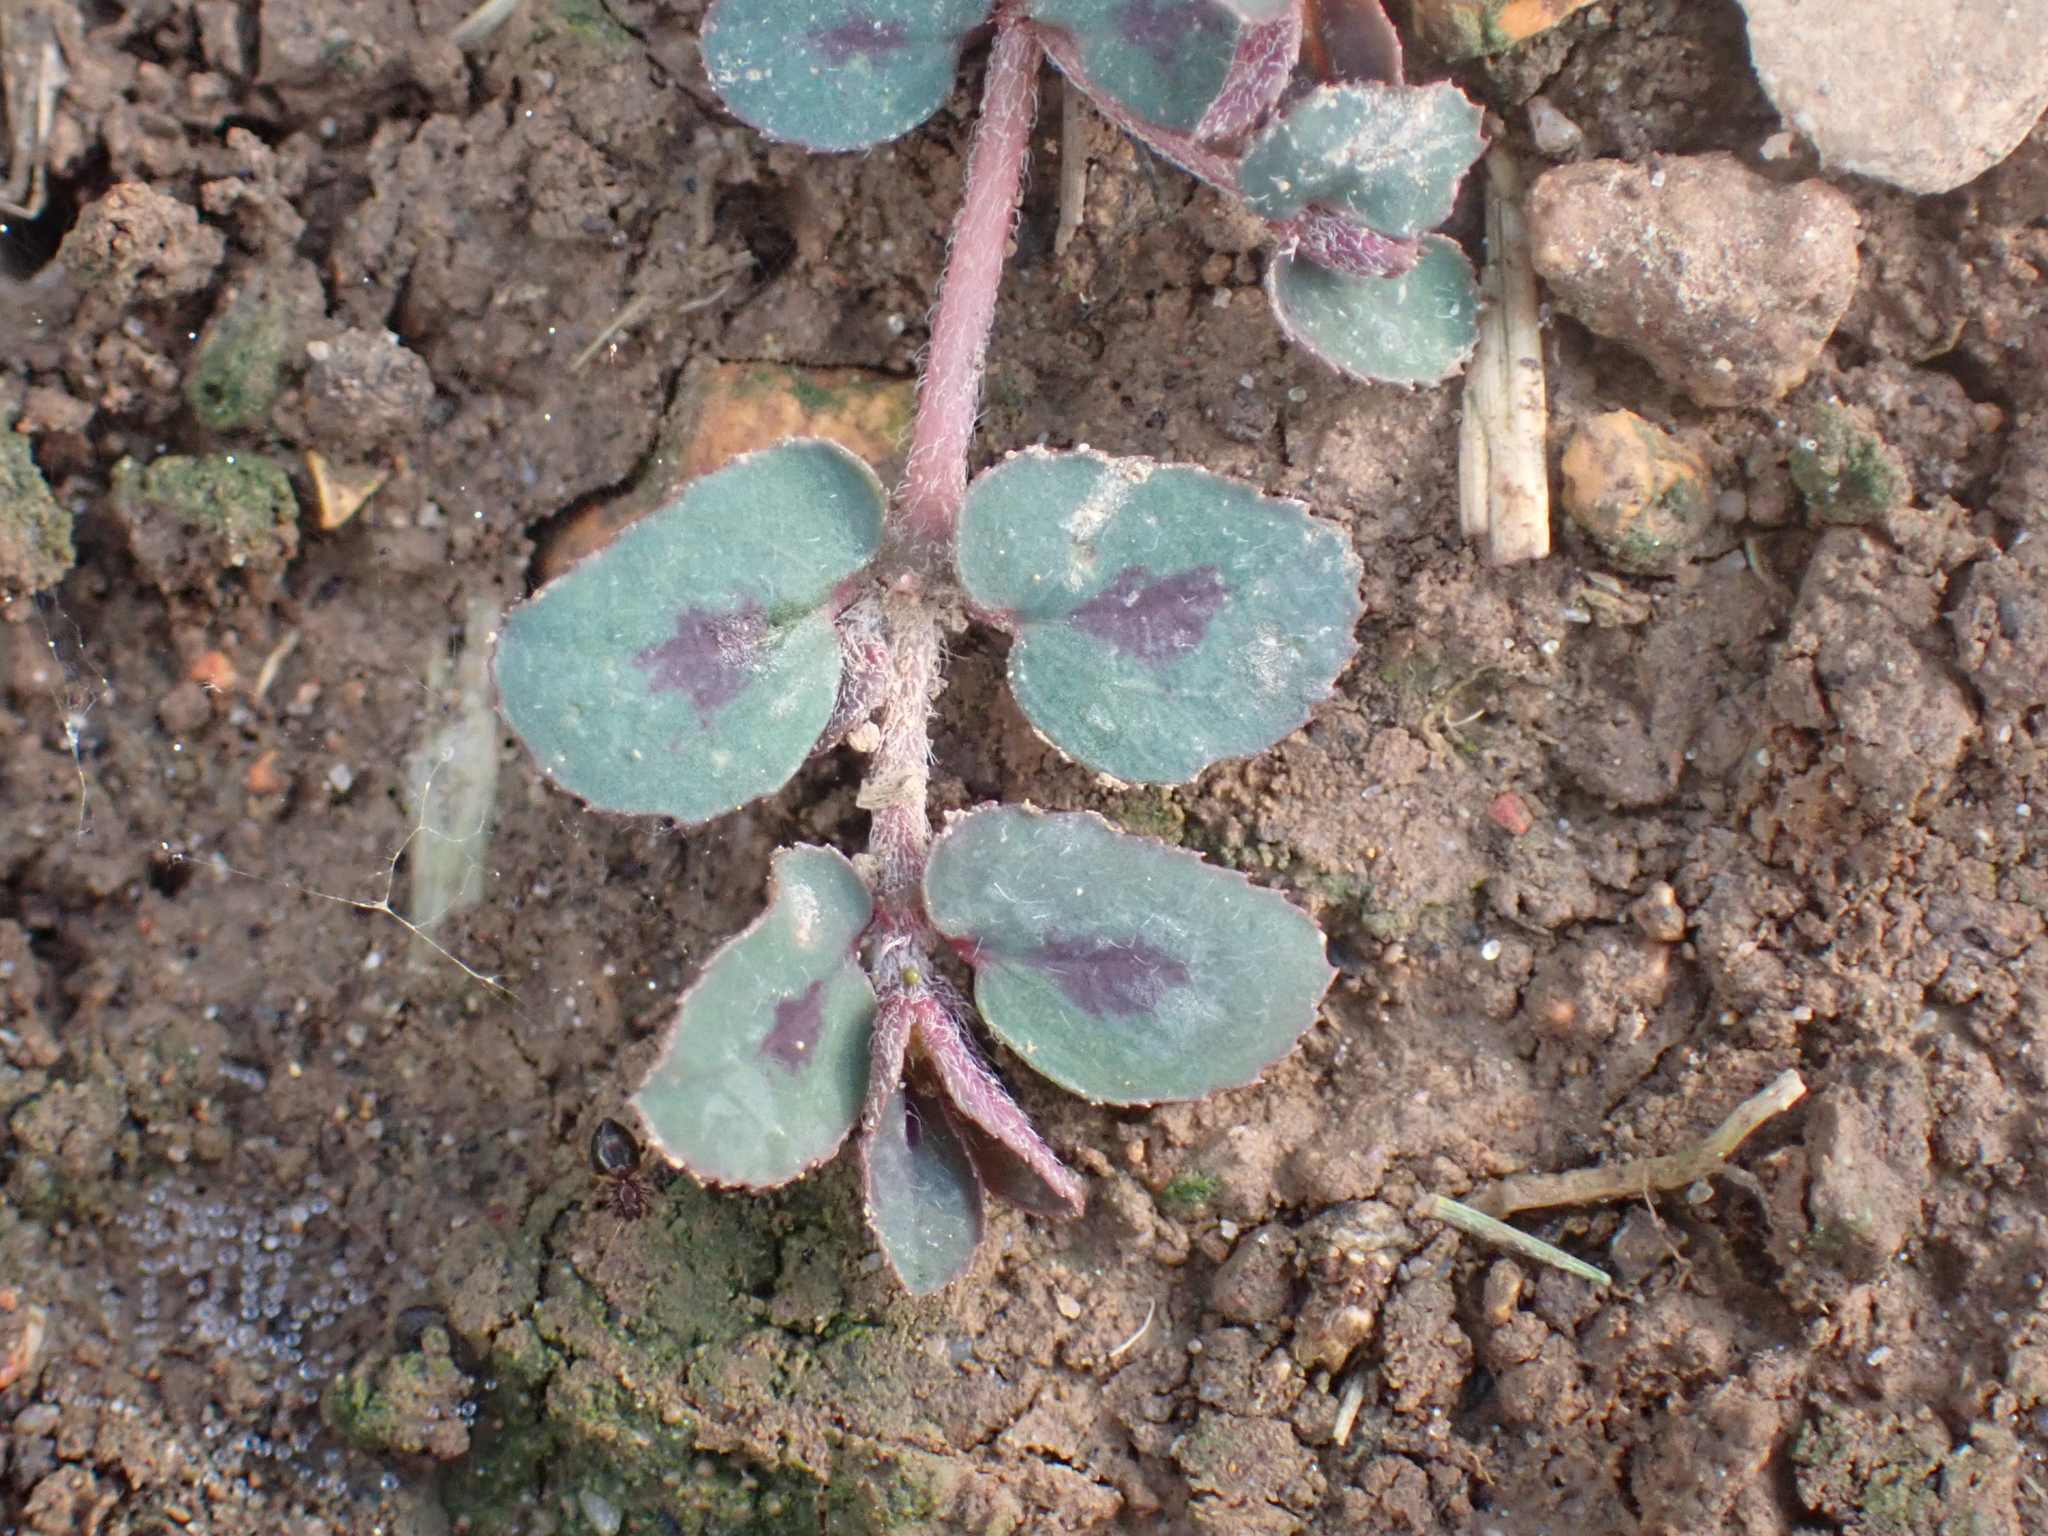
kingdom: Plantae
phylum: Tracheophyta
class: Magnoliopsida
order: Malpighiales
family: Euphorbiaceae
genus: Euphorbia
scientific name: Euphorbia maculata
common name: Spotted spurge
